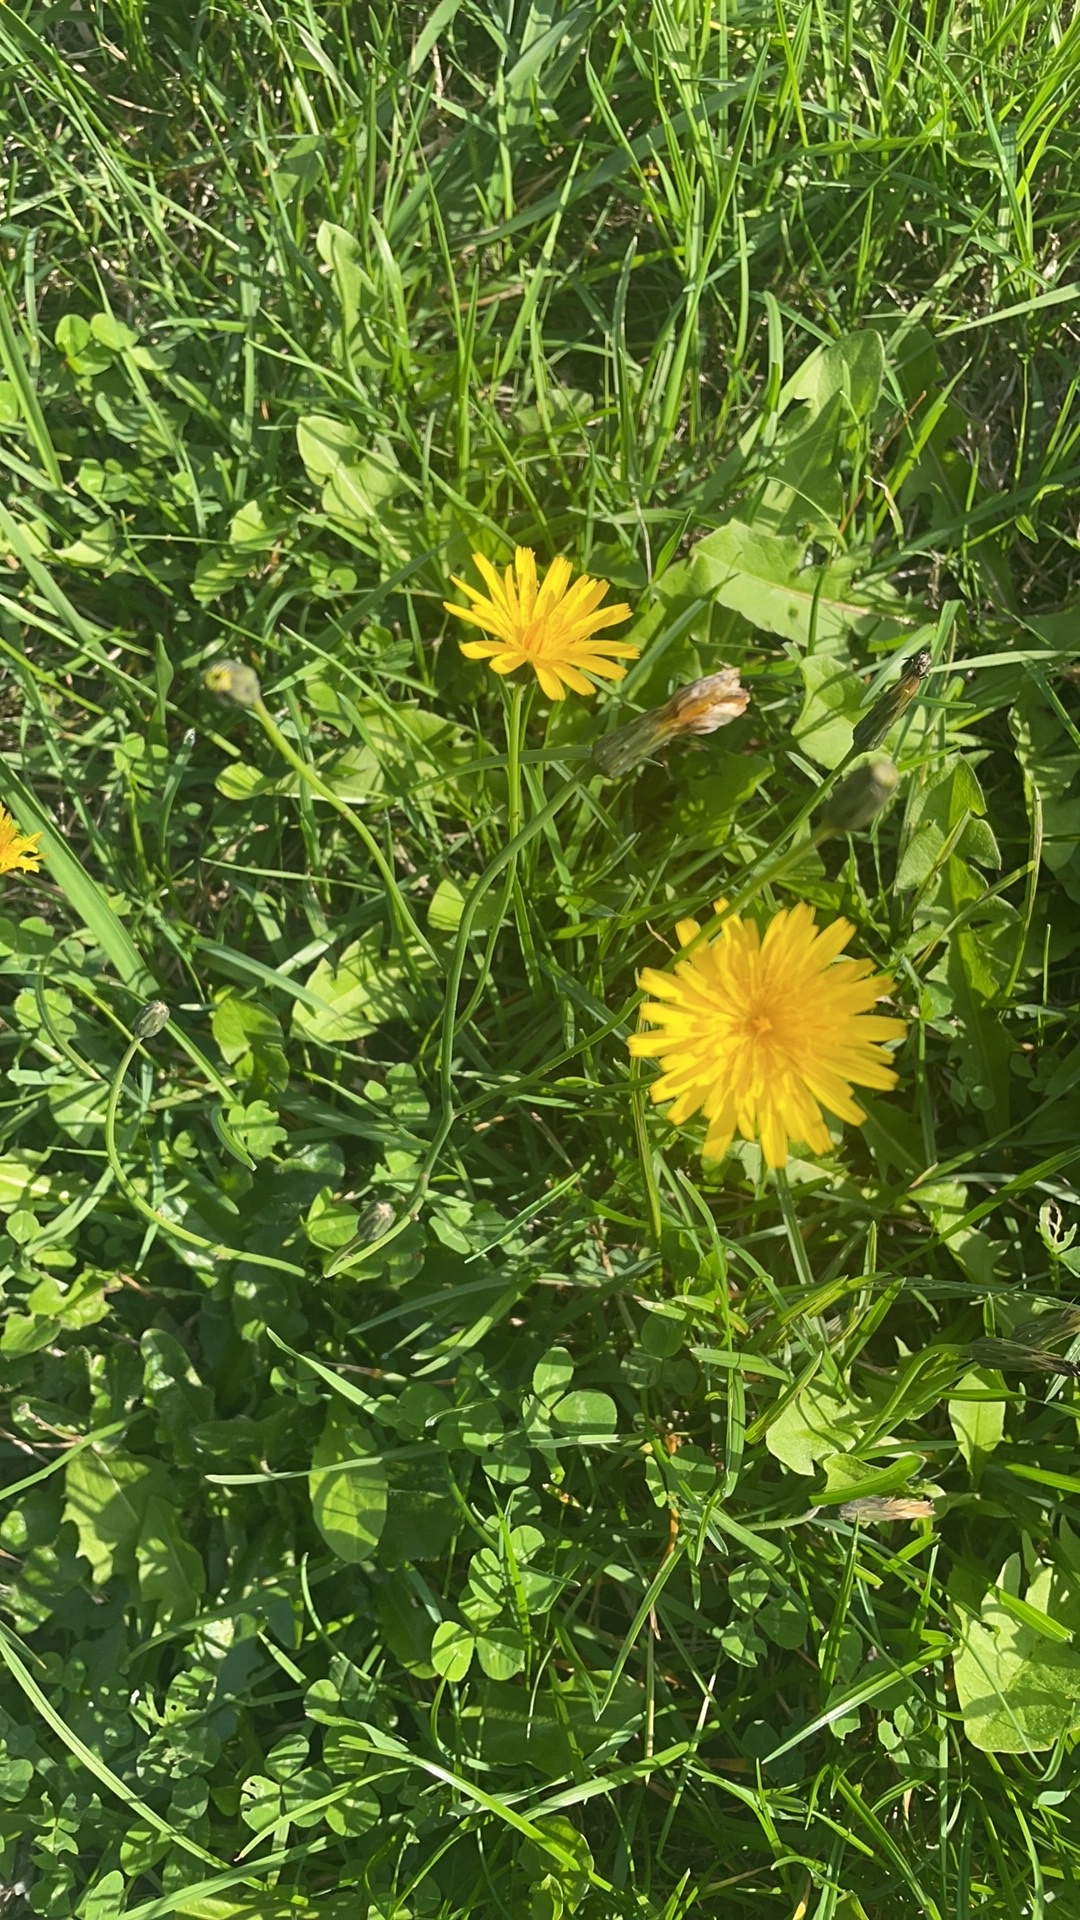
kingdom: Plantae
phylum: Tracheophyta
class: Magnoliopsida
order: Asterales
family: Asteraceae
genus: Hypochaeris
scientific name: Hypochaeris radicata
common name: Flatweed
